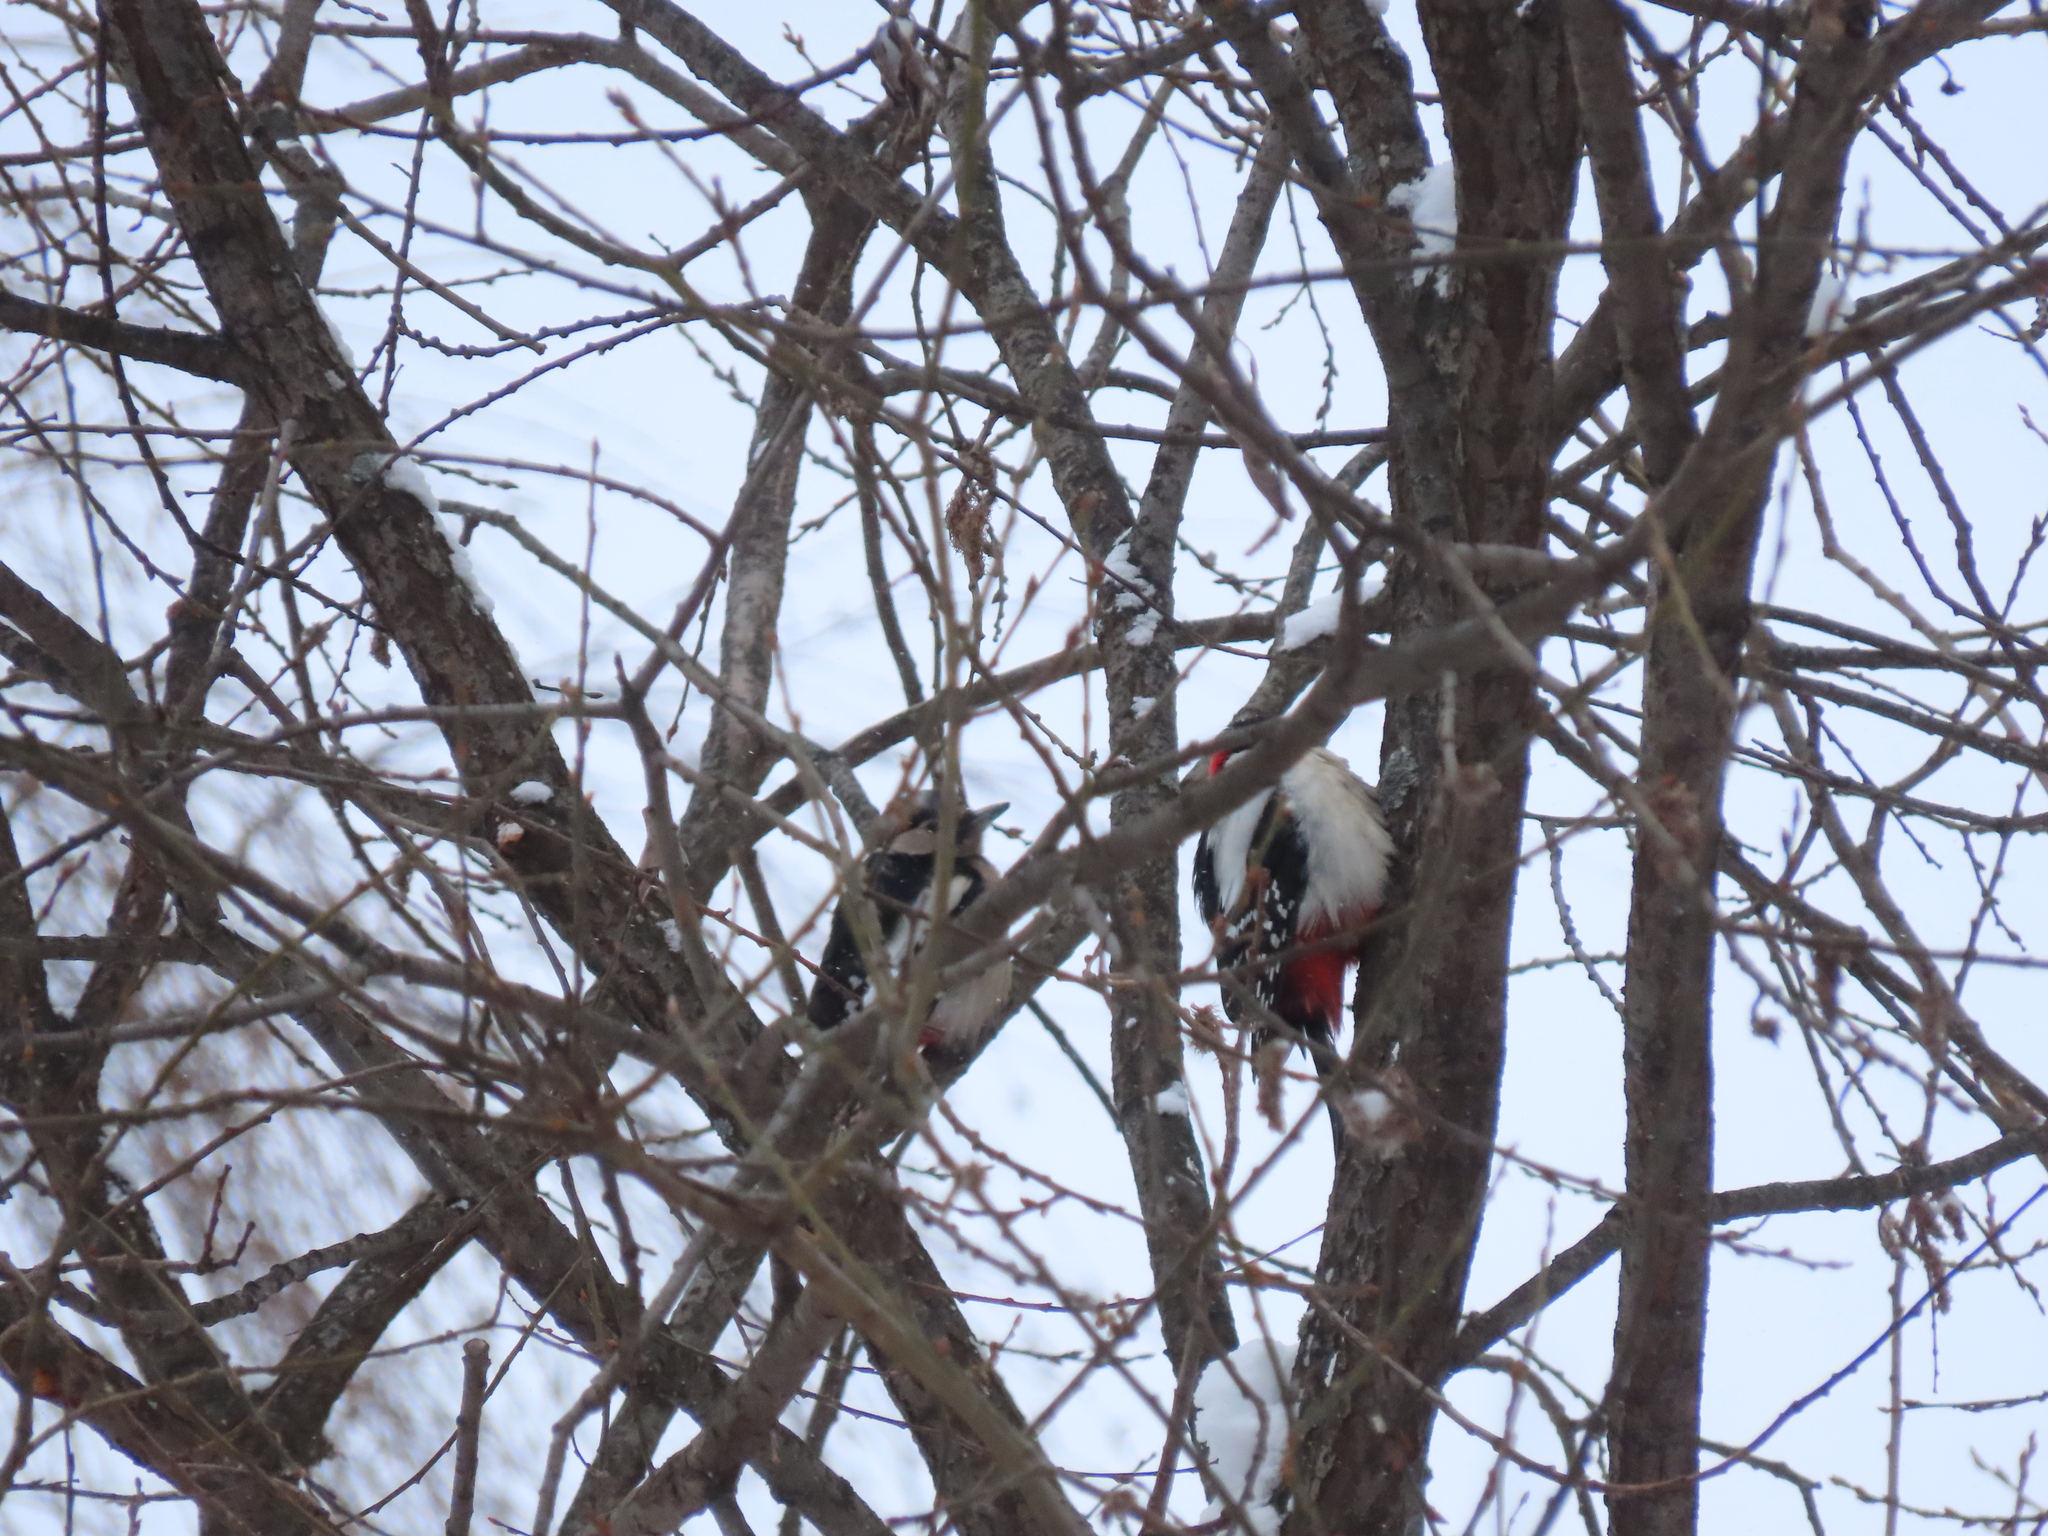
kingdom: Animalia
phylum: Chordata
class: Aves
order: Piciformes
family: Picidae
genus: Dendrocopos
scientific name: Dendrocopos major
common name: Great spotted woodpecker
